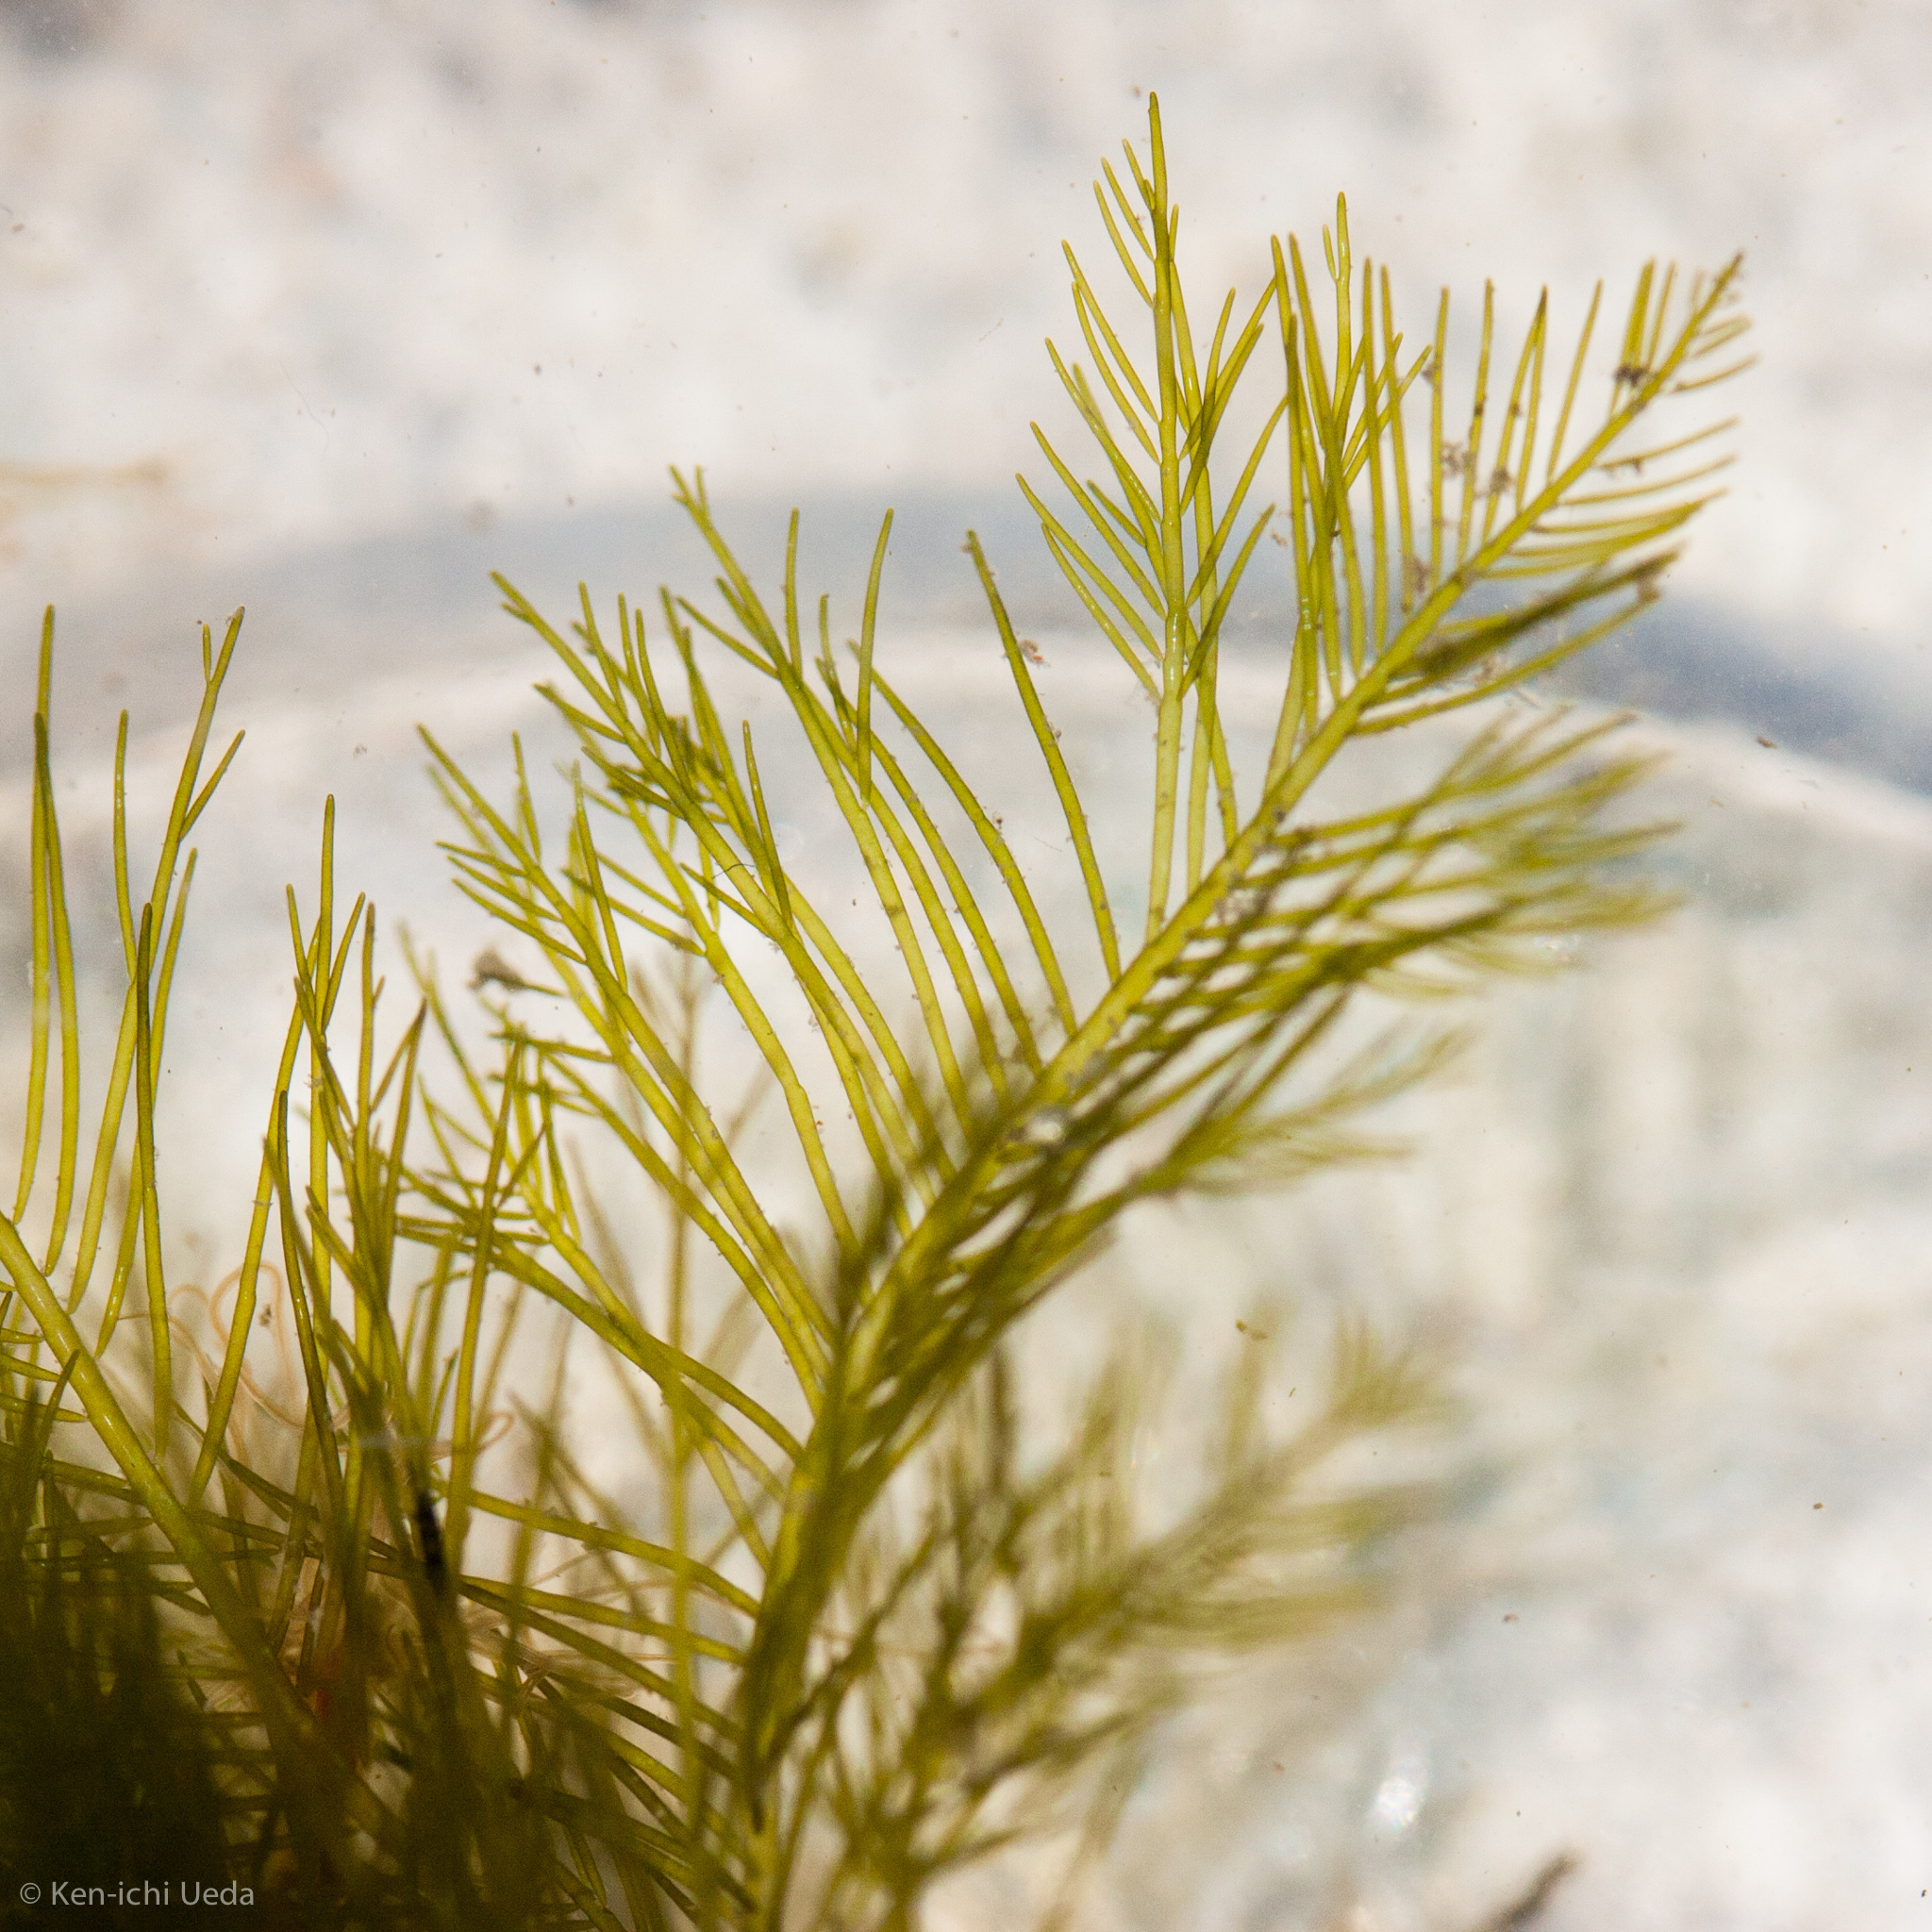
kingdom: Plantae
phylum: Chlorophyta
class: Ulvophyceae
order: Bryopsidales
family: Bryopsidaceae
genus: Bryopsis
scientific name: Bryopsis corticulans
